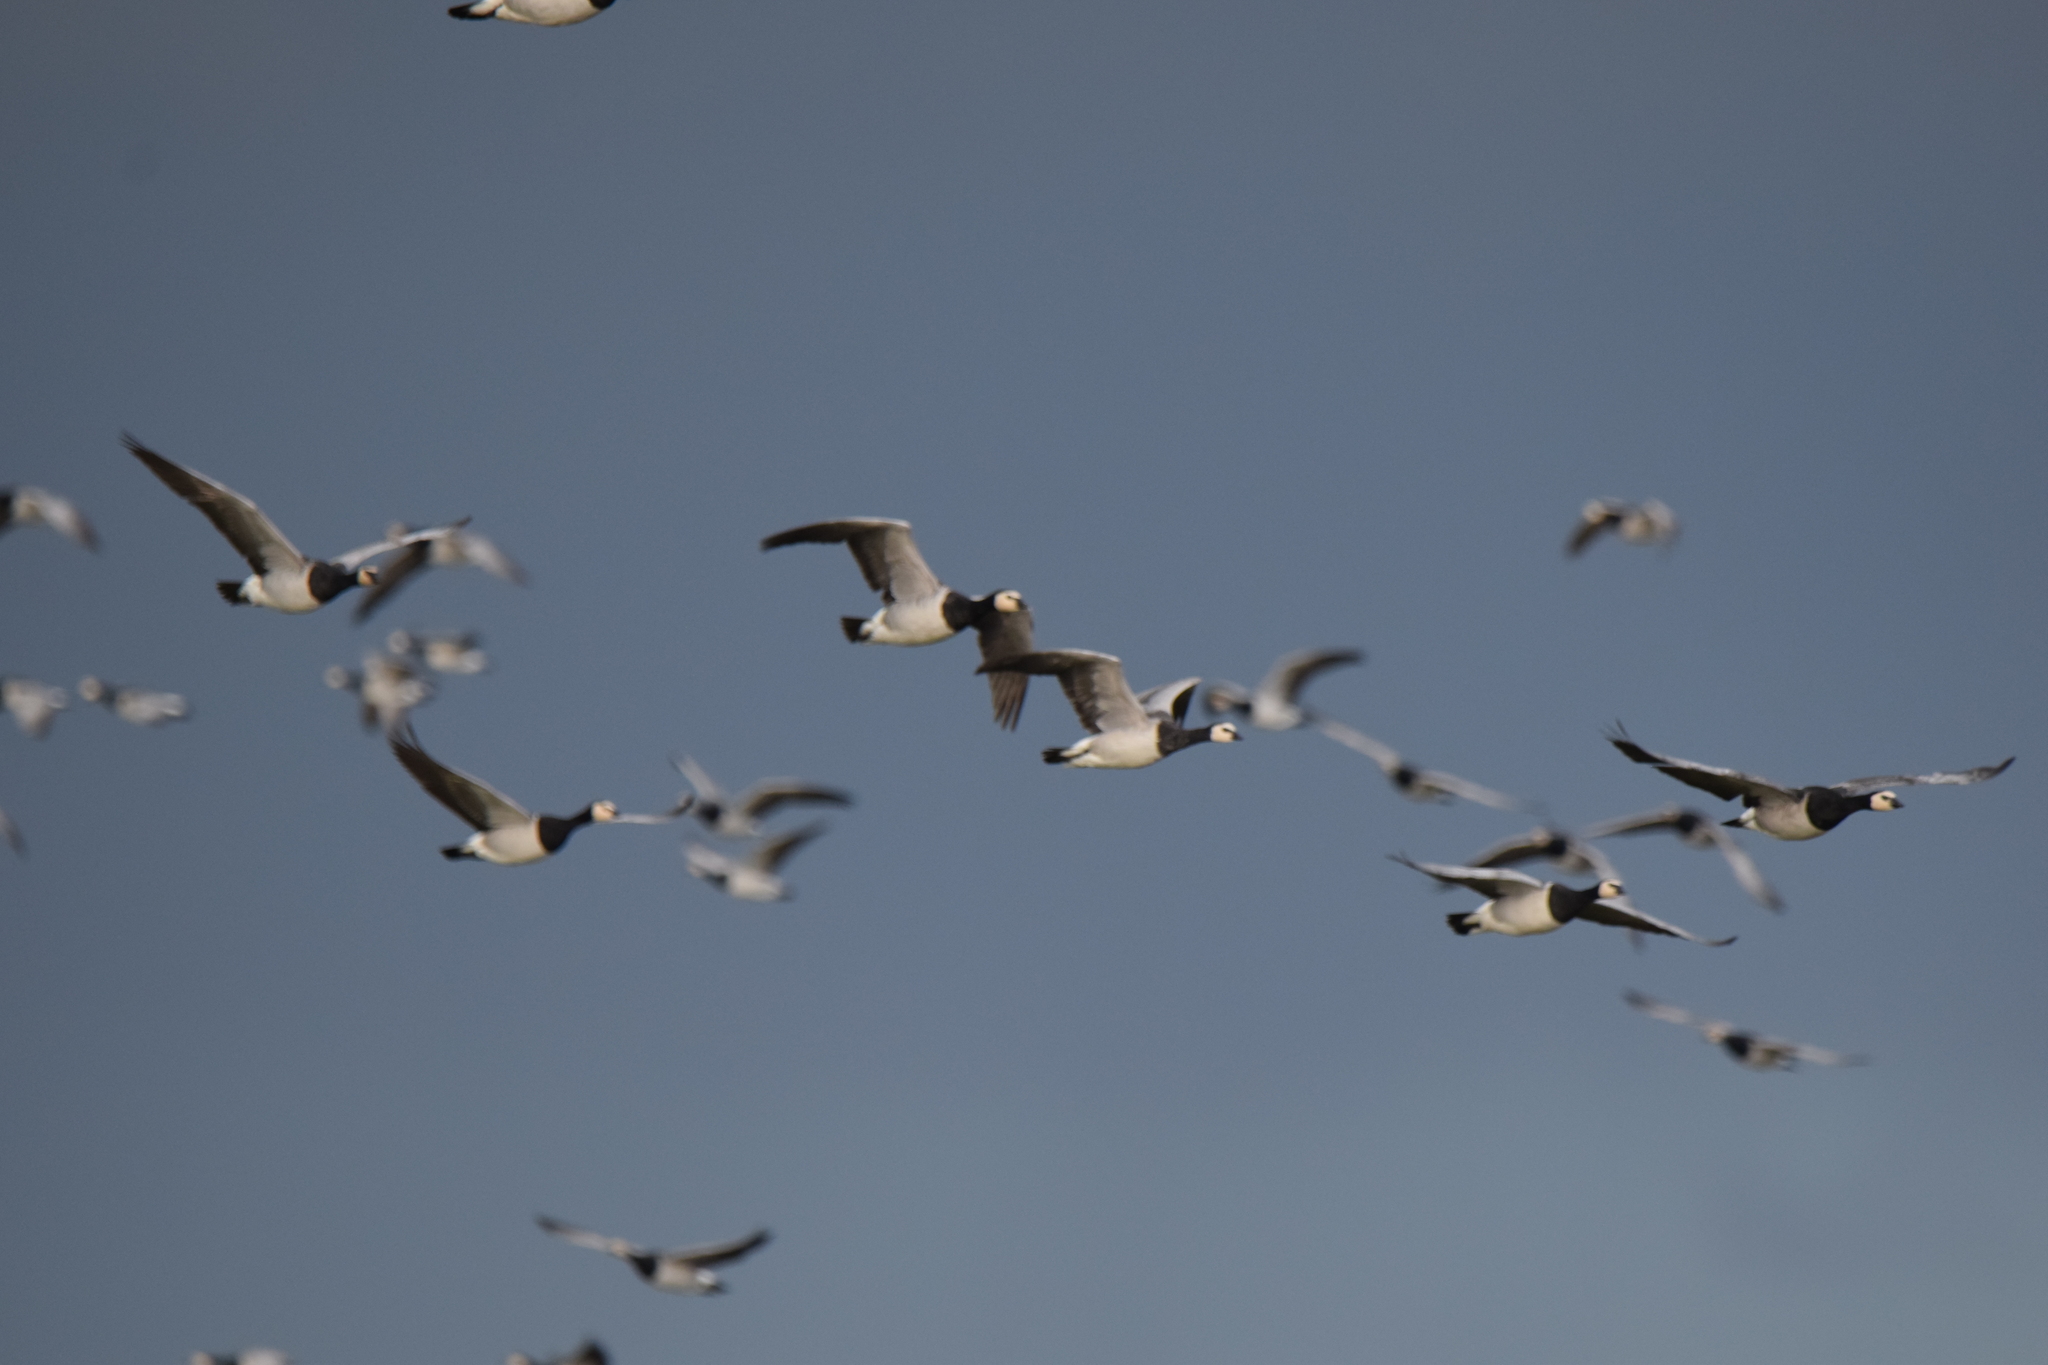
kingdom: Animalia
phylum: Chordata
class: Aves
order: Anseriformes
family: Anatidae
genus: Branta
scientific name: Branta leucopsis
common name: Barnacle goose
